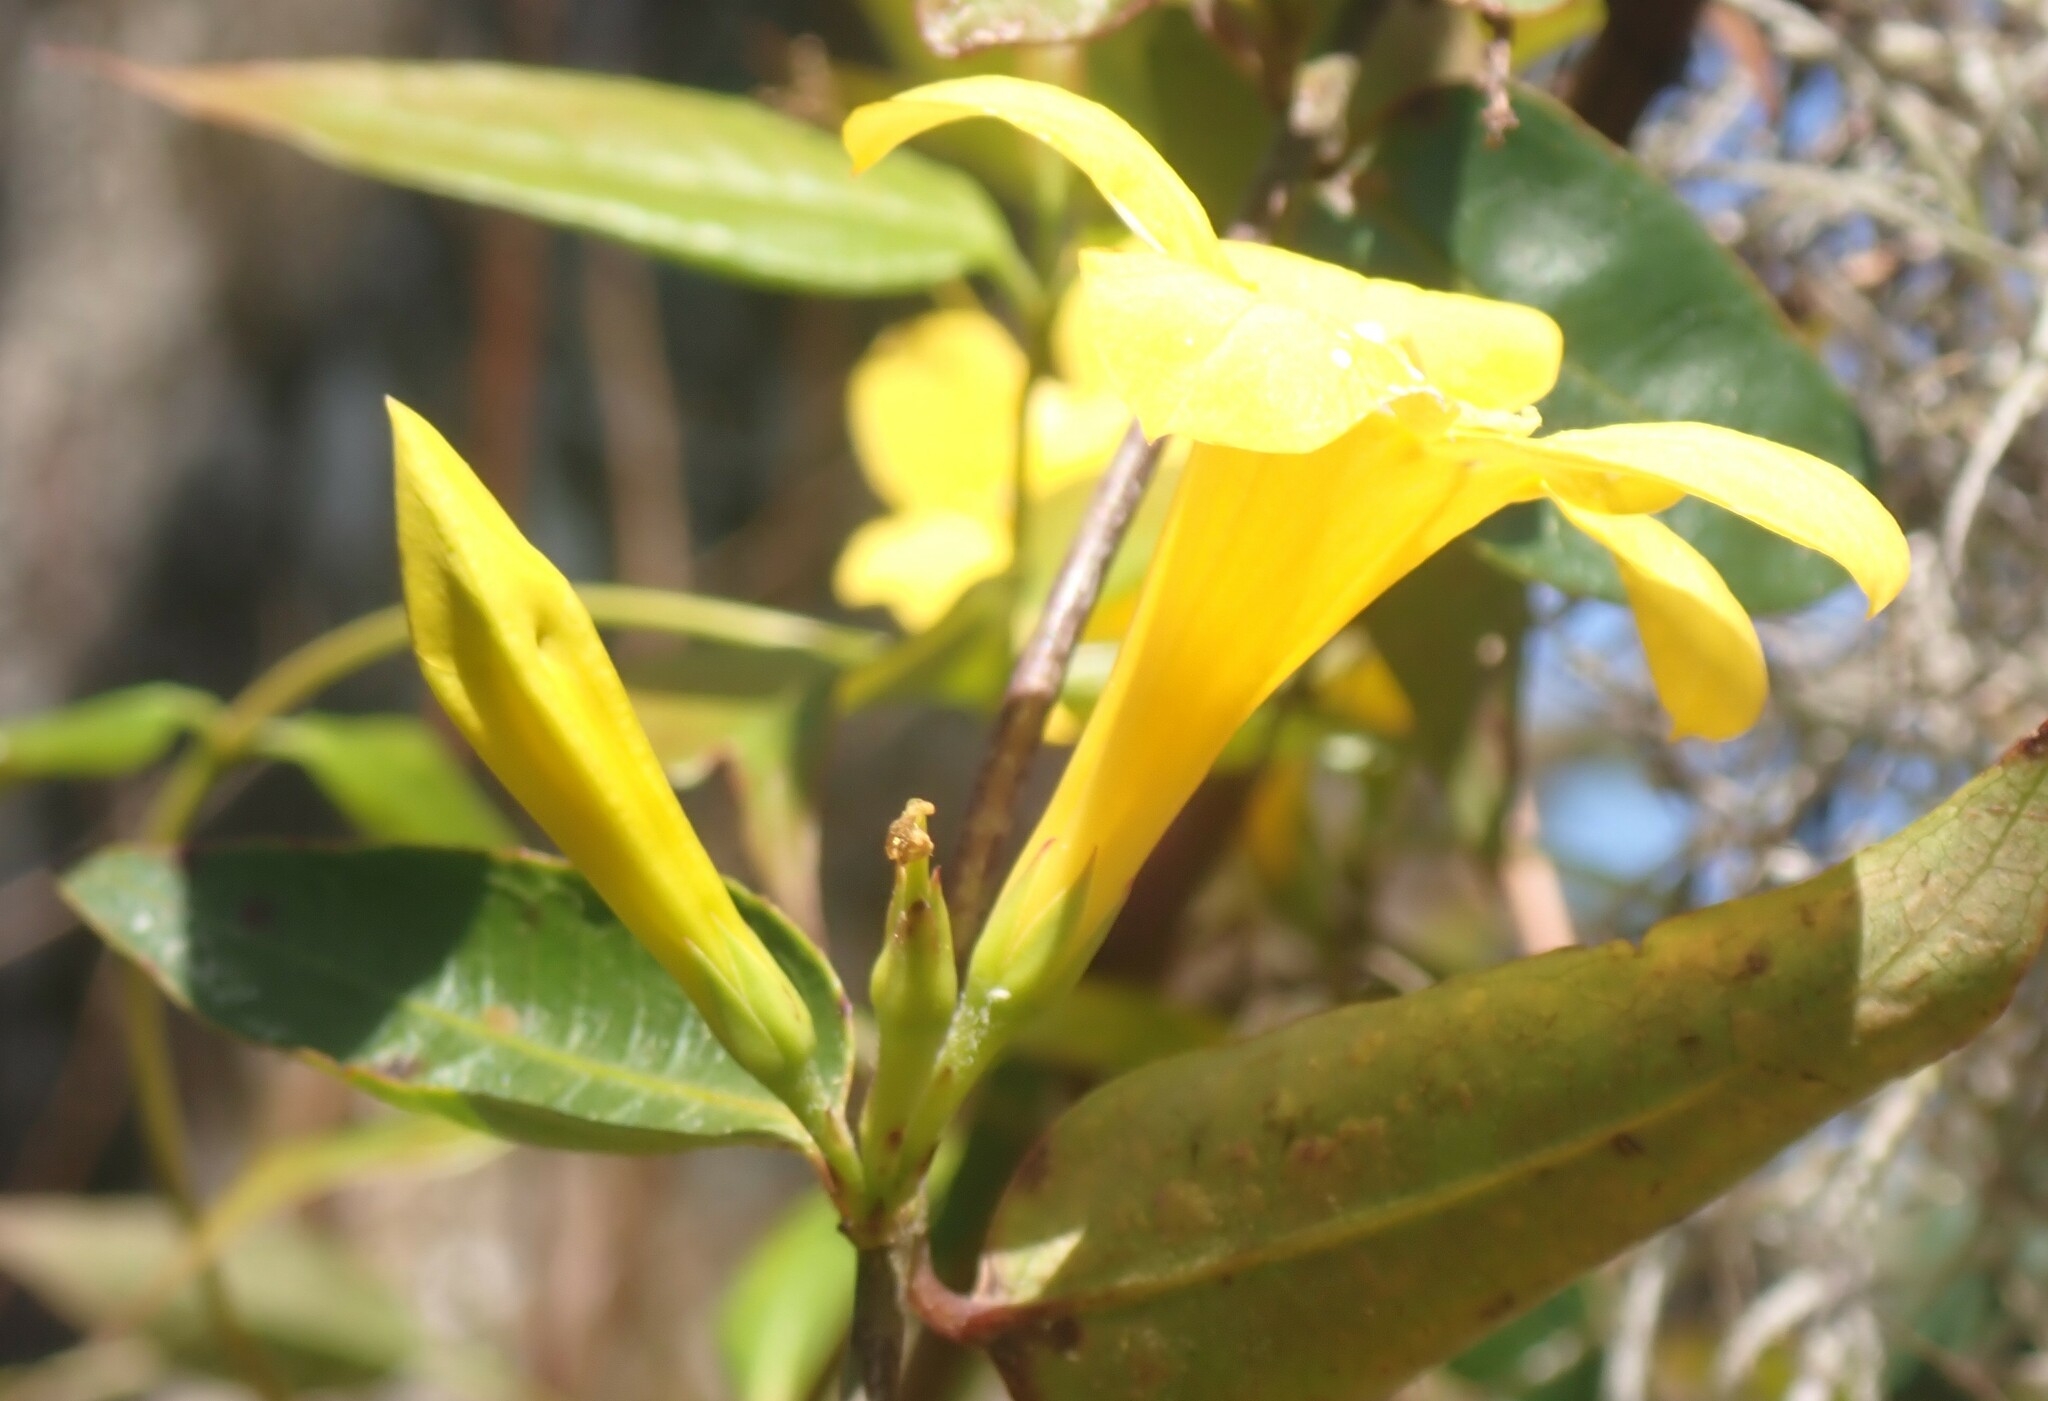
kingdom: Plantae
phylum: Tracheophyta
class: Magnoliopsida
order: Gentianales
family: Gelsemiaceae
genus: Gelsemium
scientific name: Gelsemium rankinii
